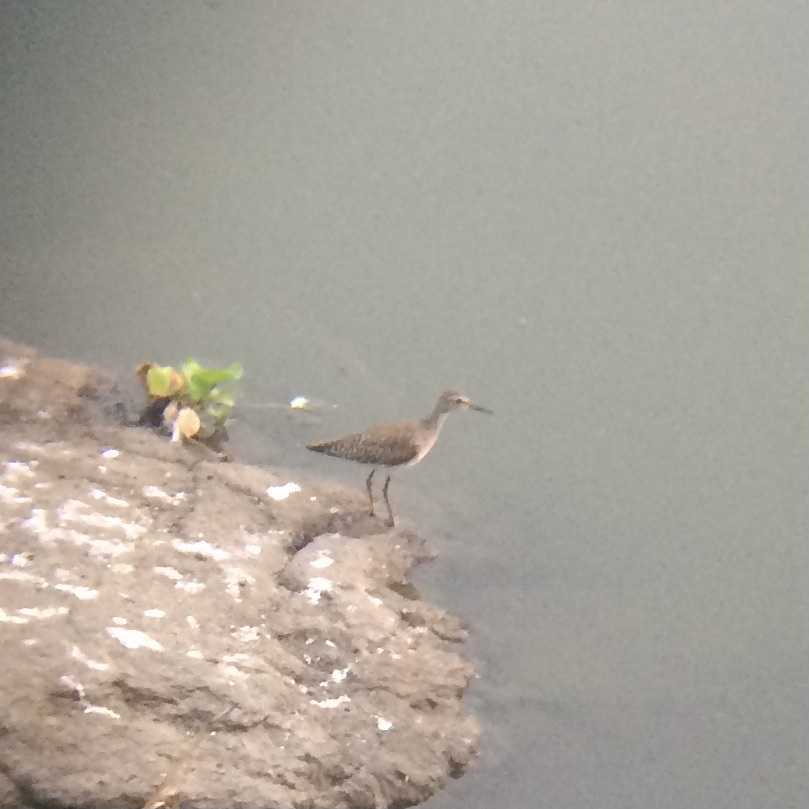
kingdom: Animalia
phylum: Chordata
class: Aves
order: Charadriiformes
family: Scolopacidae
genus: Tringa
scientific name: Tringa glareola
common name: Wood sandpiper
